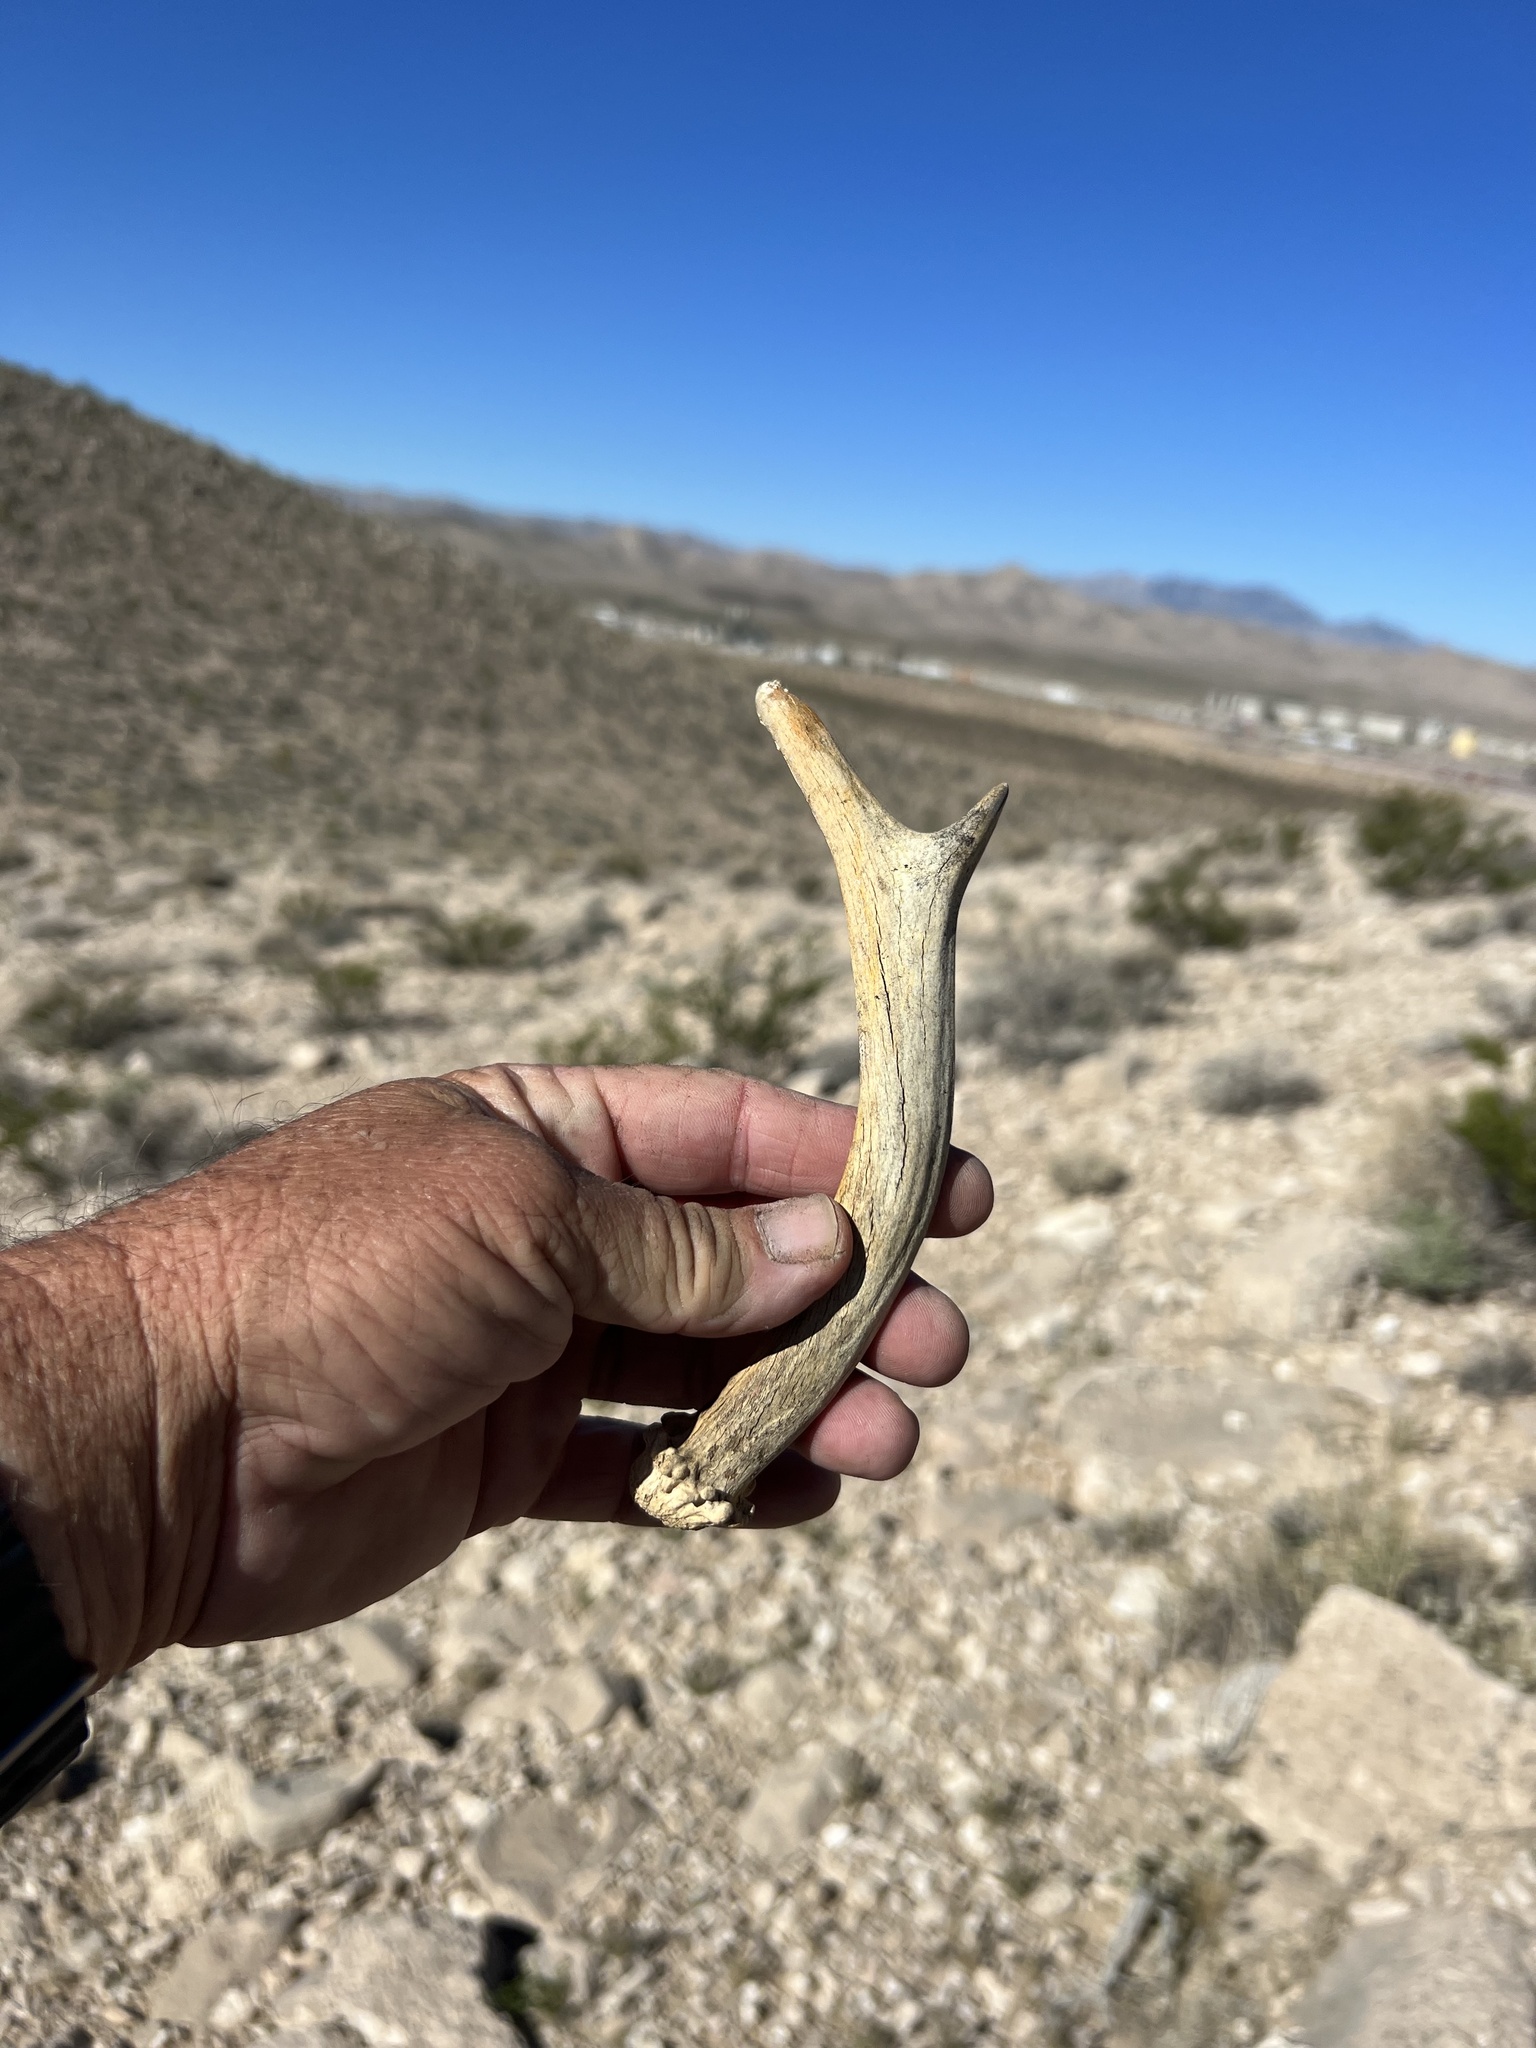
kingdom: Animalia
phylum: Chordata
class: Mammalia
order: Artiodactyla
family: Cervidae
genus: Odocoileus
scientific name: Odocoileus hemionus
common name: Mule deer
